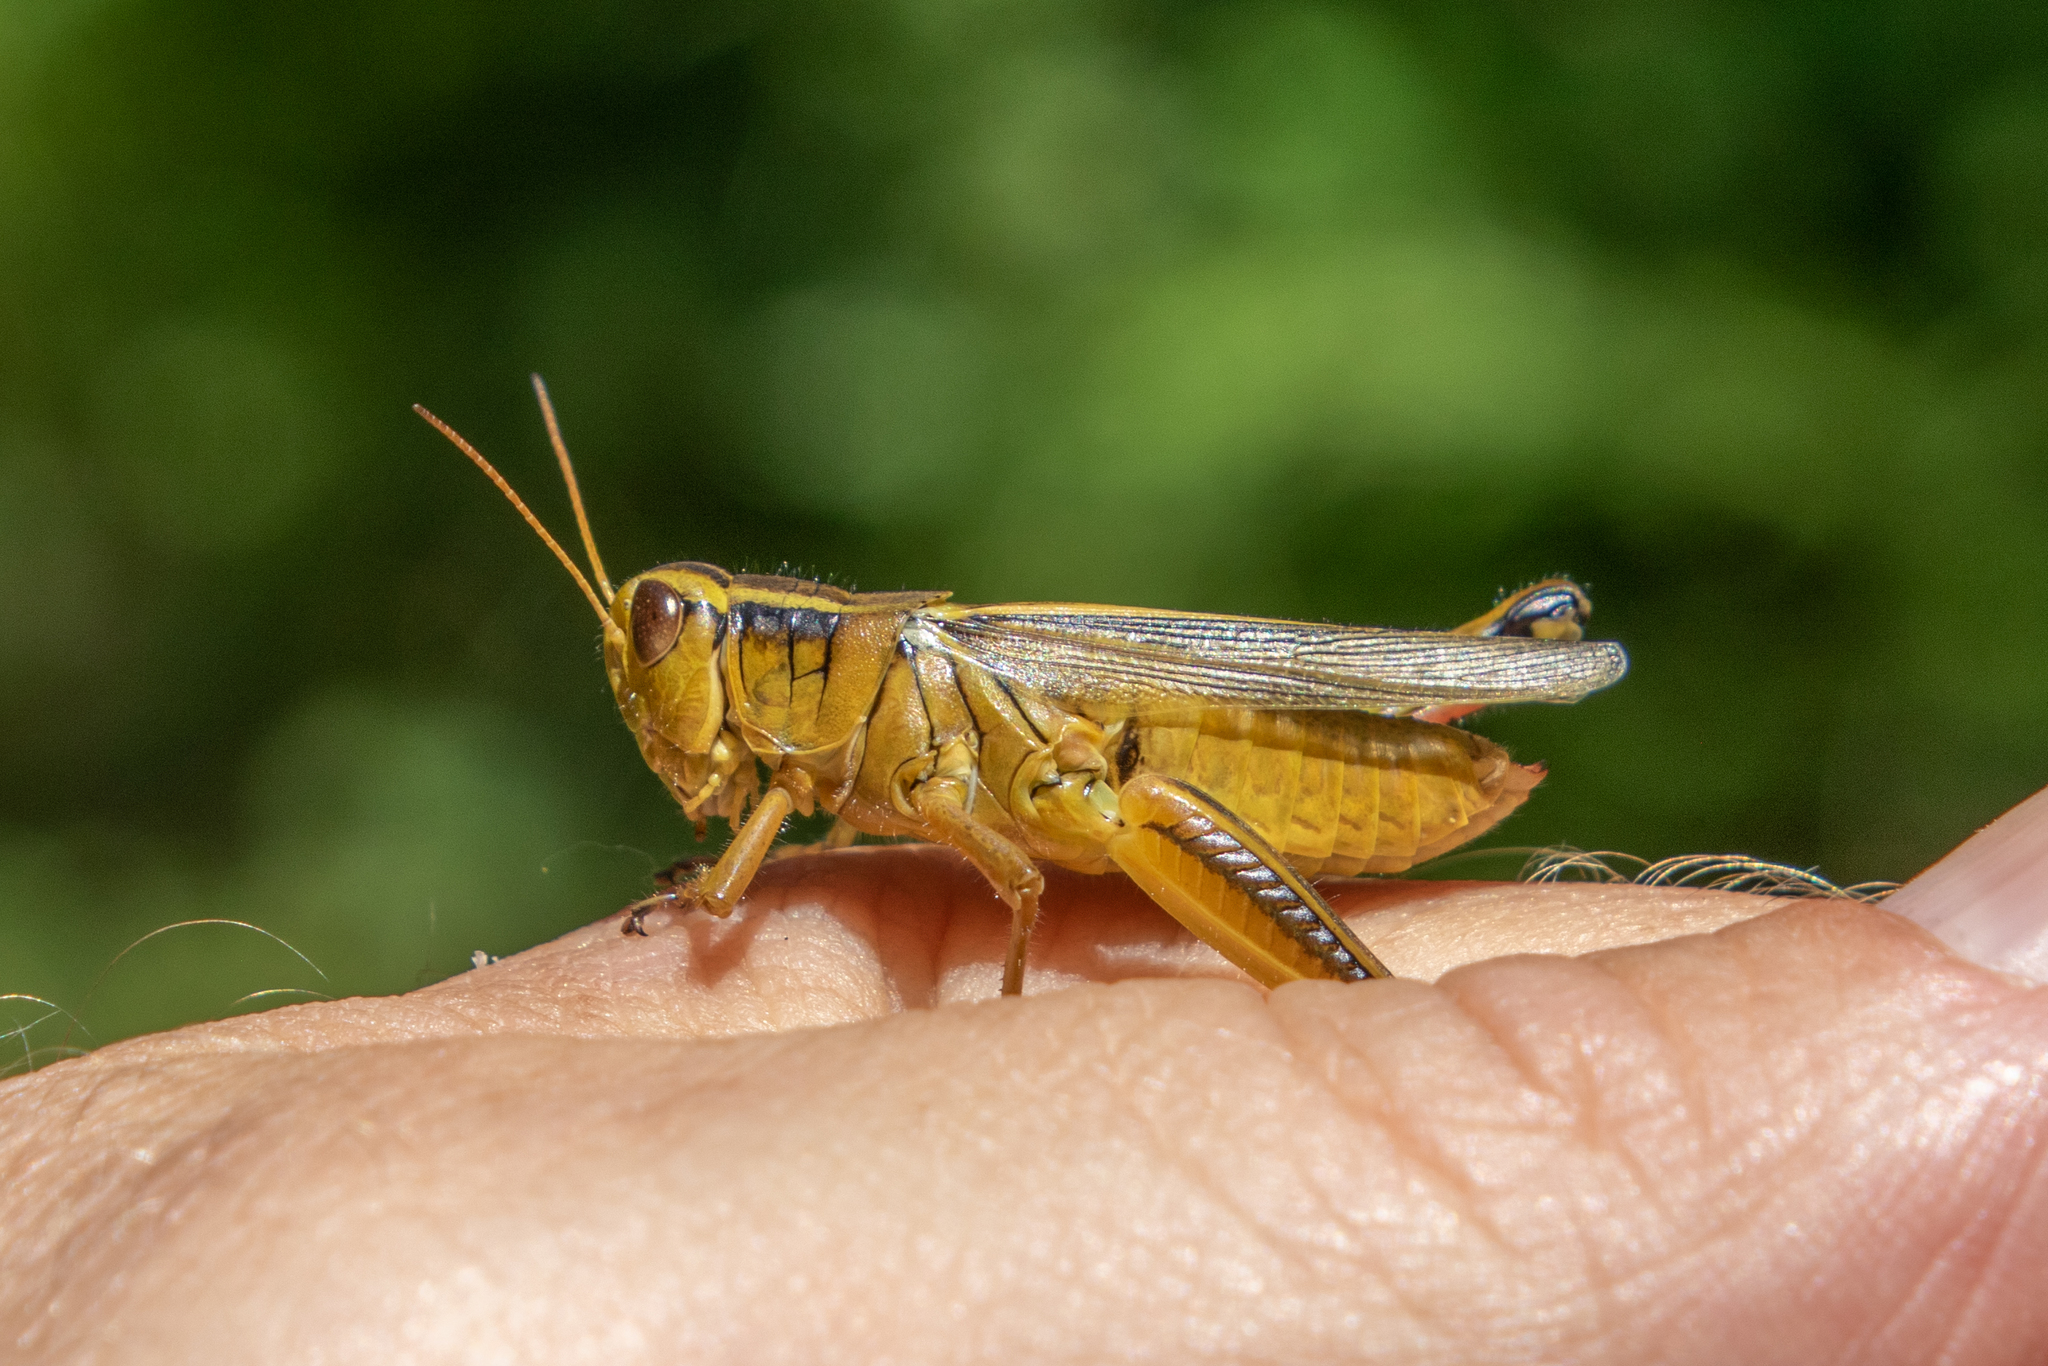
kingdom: Animalia
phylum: Arthropoda
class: Insecta
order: Orthoptera
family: Acrididae
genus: Melanoplus
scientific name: Melanoplus bivittatus
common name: Two-striped grasshopper
